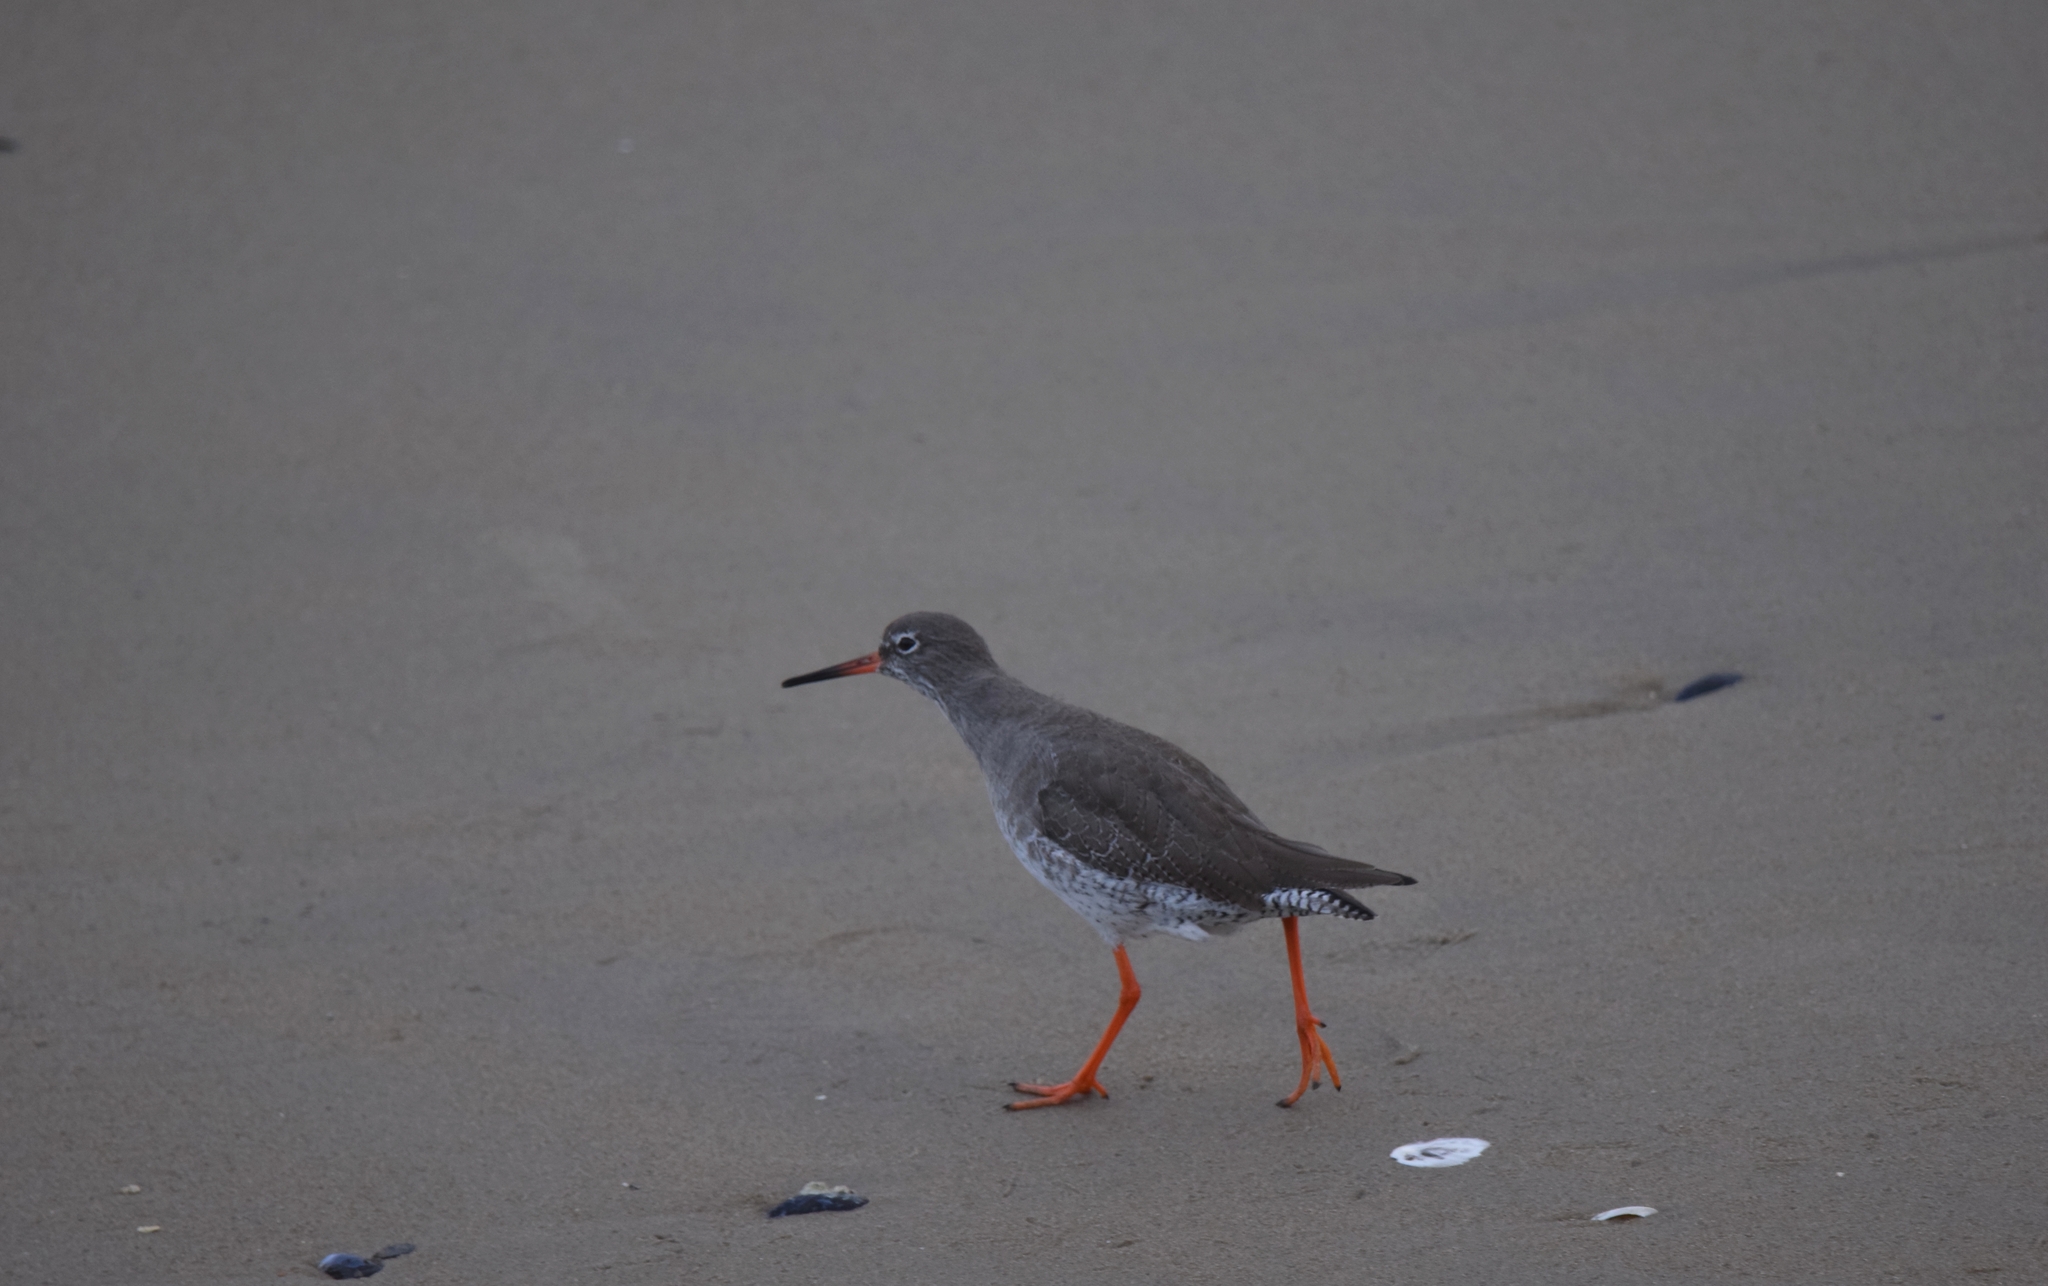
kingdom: Animalia
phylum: Chordata
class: Aves
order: Charadriiformes
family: Scolopacidae
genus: Tringa
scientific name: Tringa totanus
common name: Common redshank
